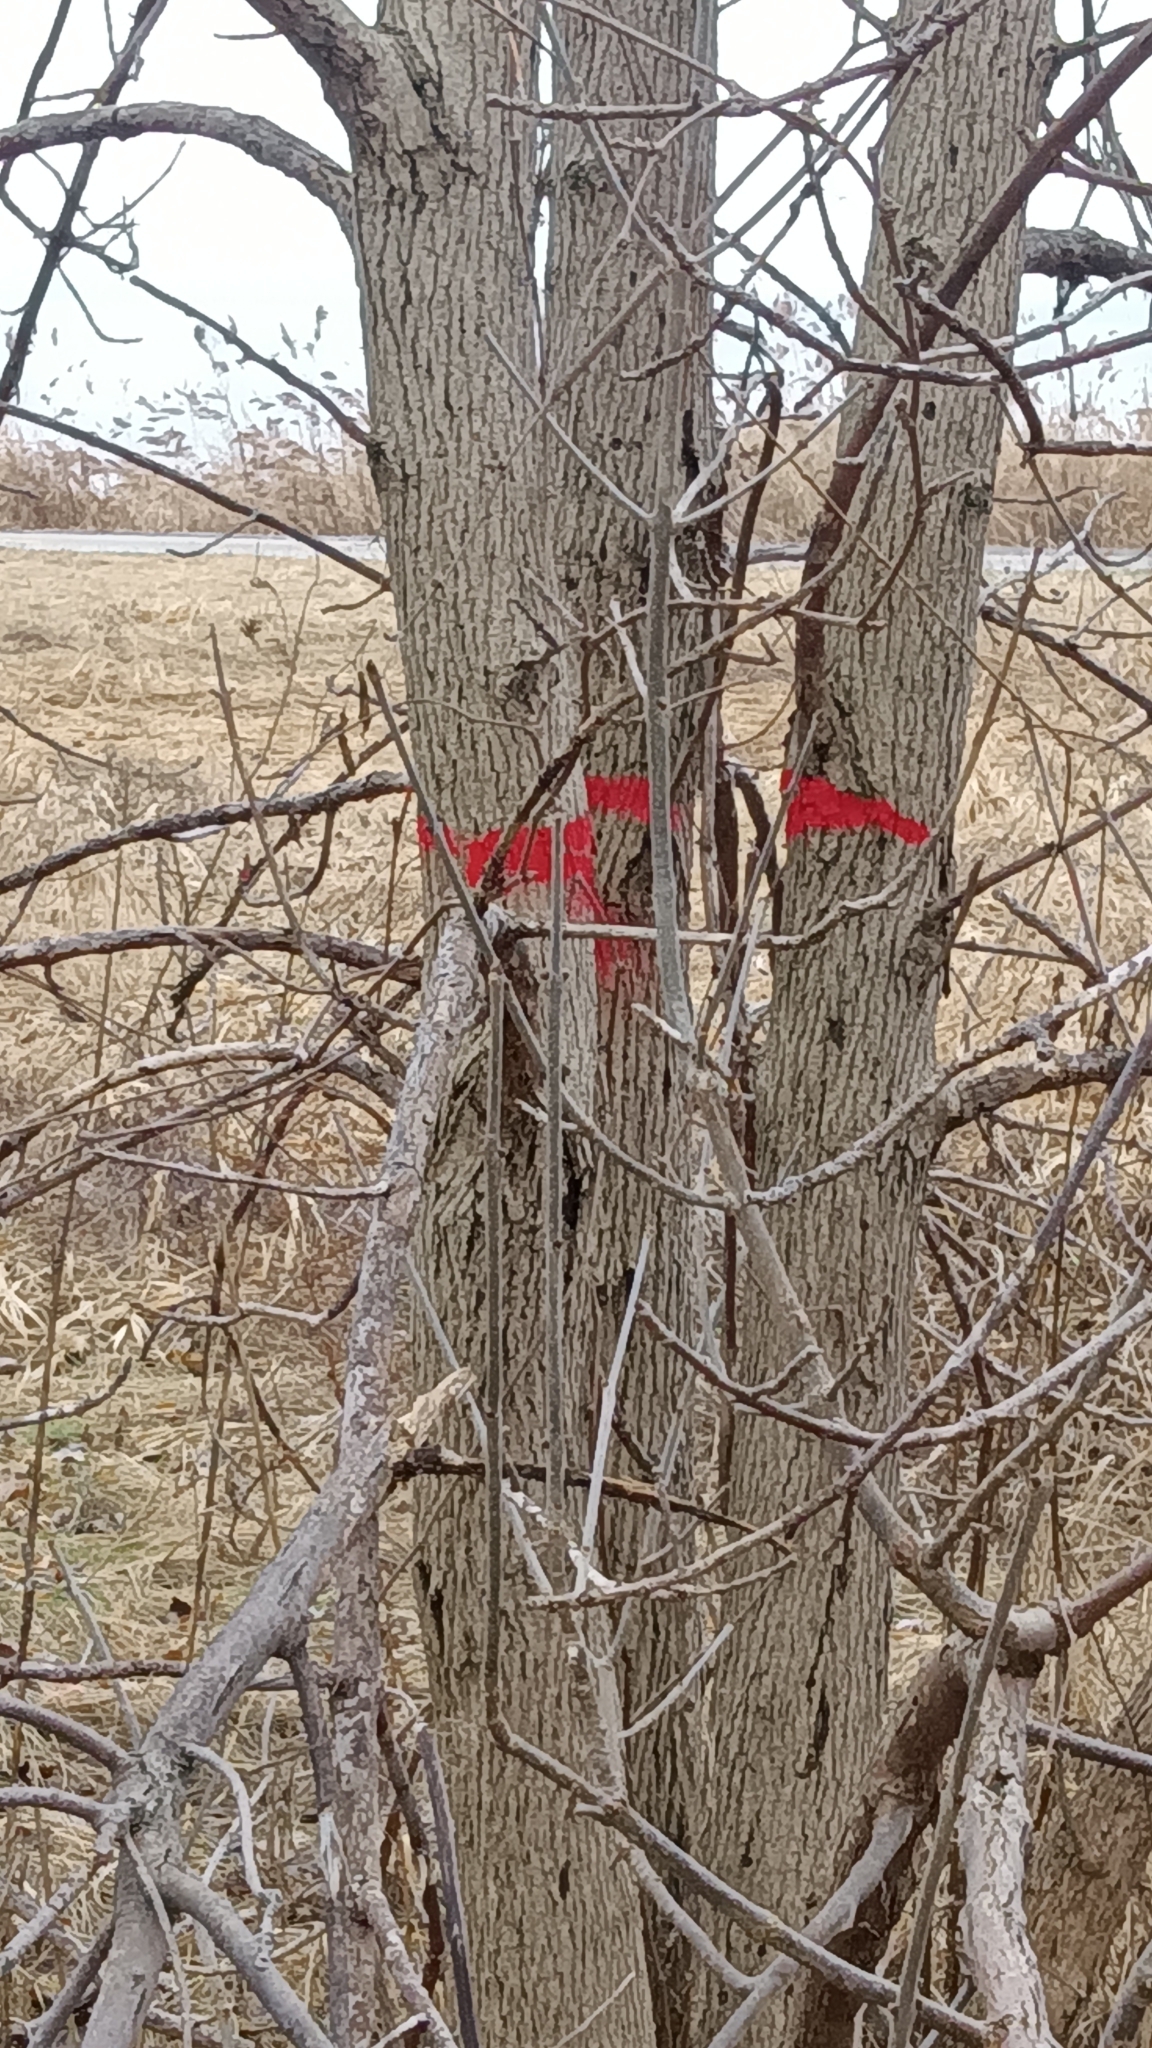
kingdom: Plantae
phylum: Tracheophyta
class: Magnoliopsida
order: Lamiales
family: Oleaceae
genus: Fraxinus
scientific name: Fraxinus pennsylvanica
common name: Green ash
